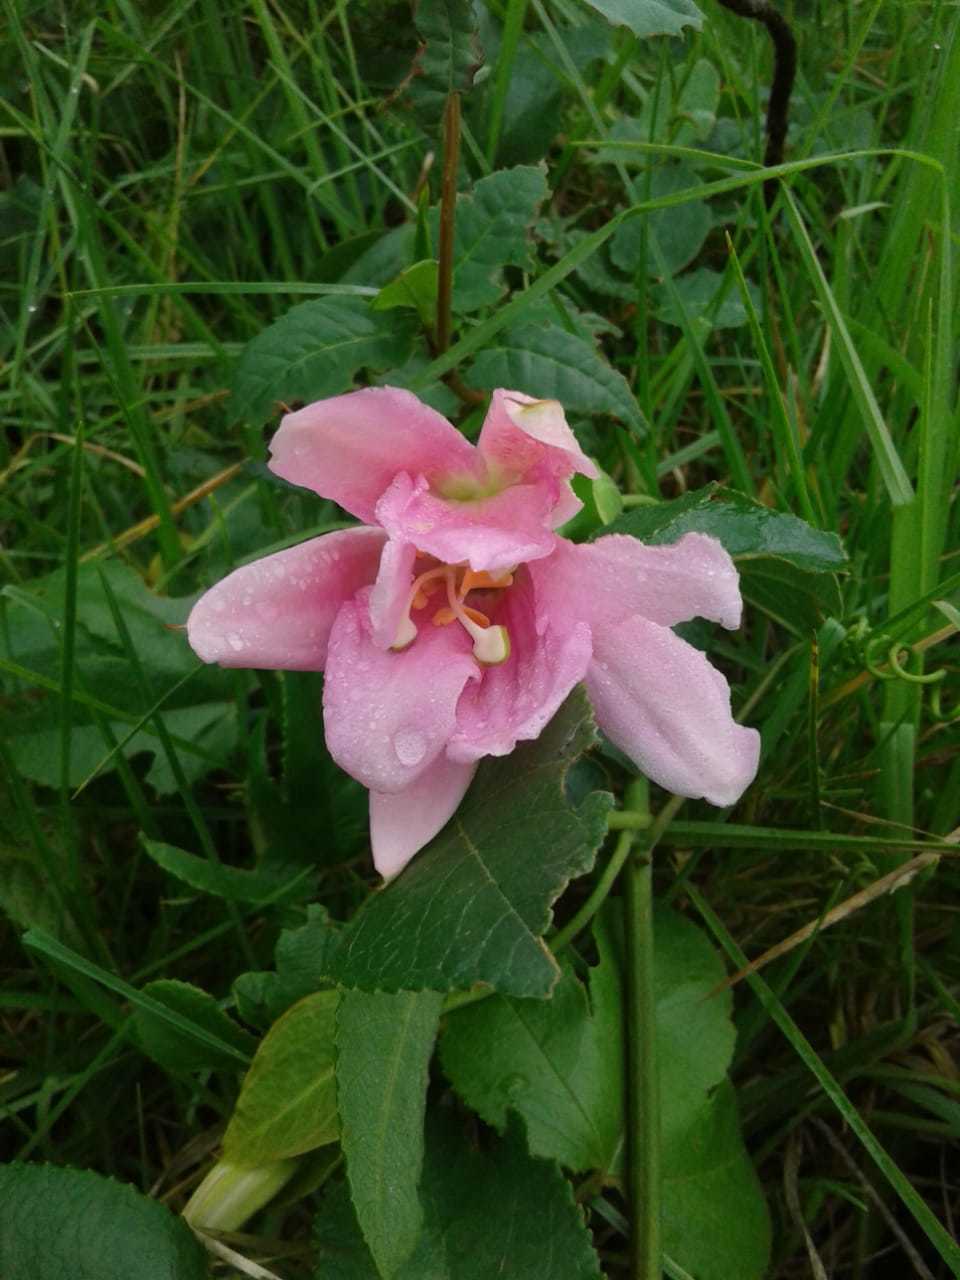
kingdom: Plantae
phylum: Tracheophyta
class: Magnoliopsida
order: Malpighiales
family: Passifloraceae
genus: Passiflora
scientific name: Passiflora tarminiana
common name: Banana poka
